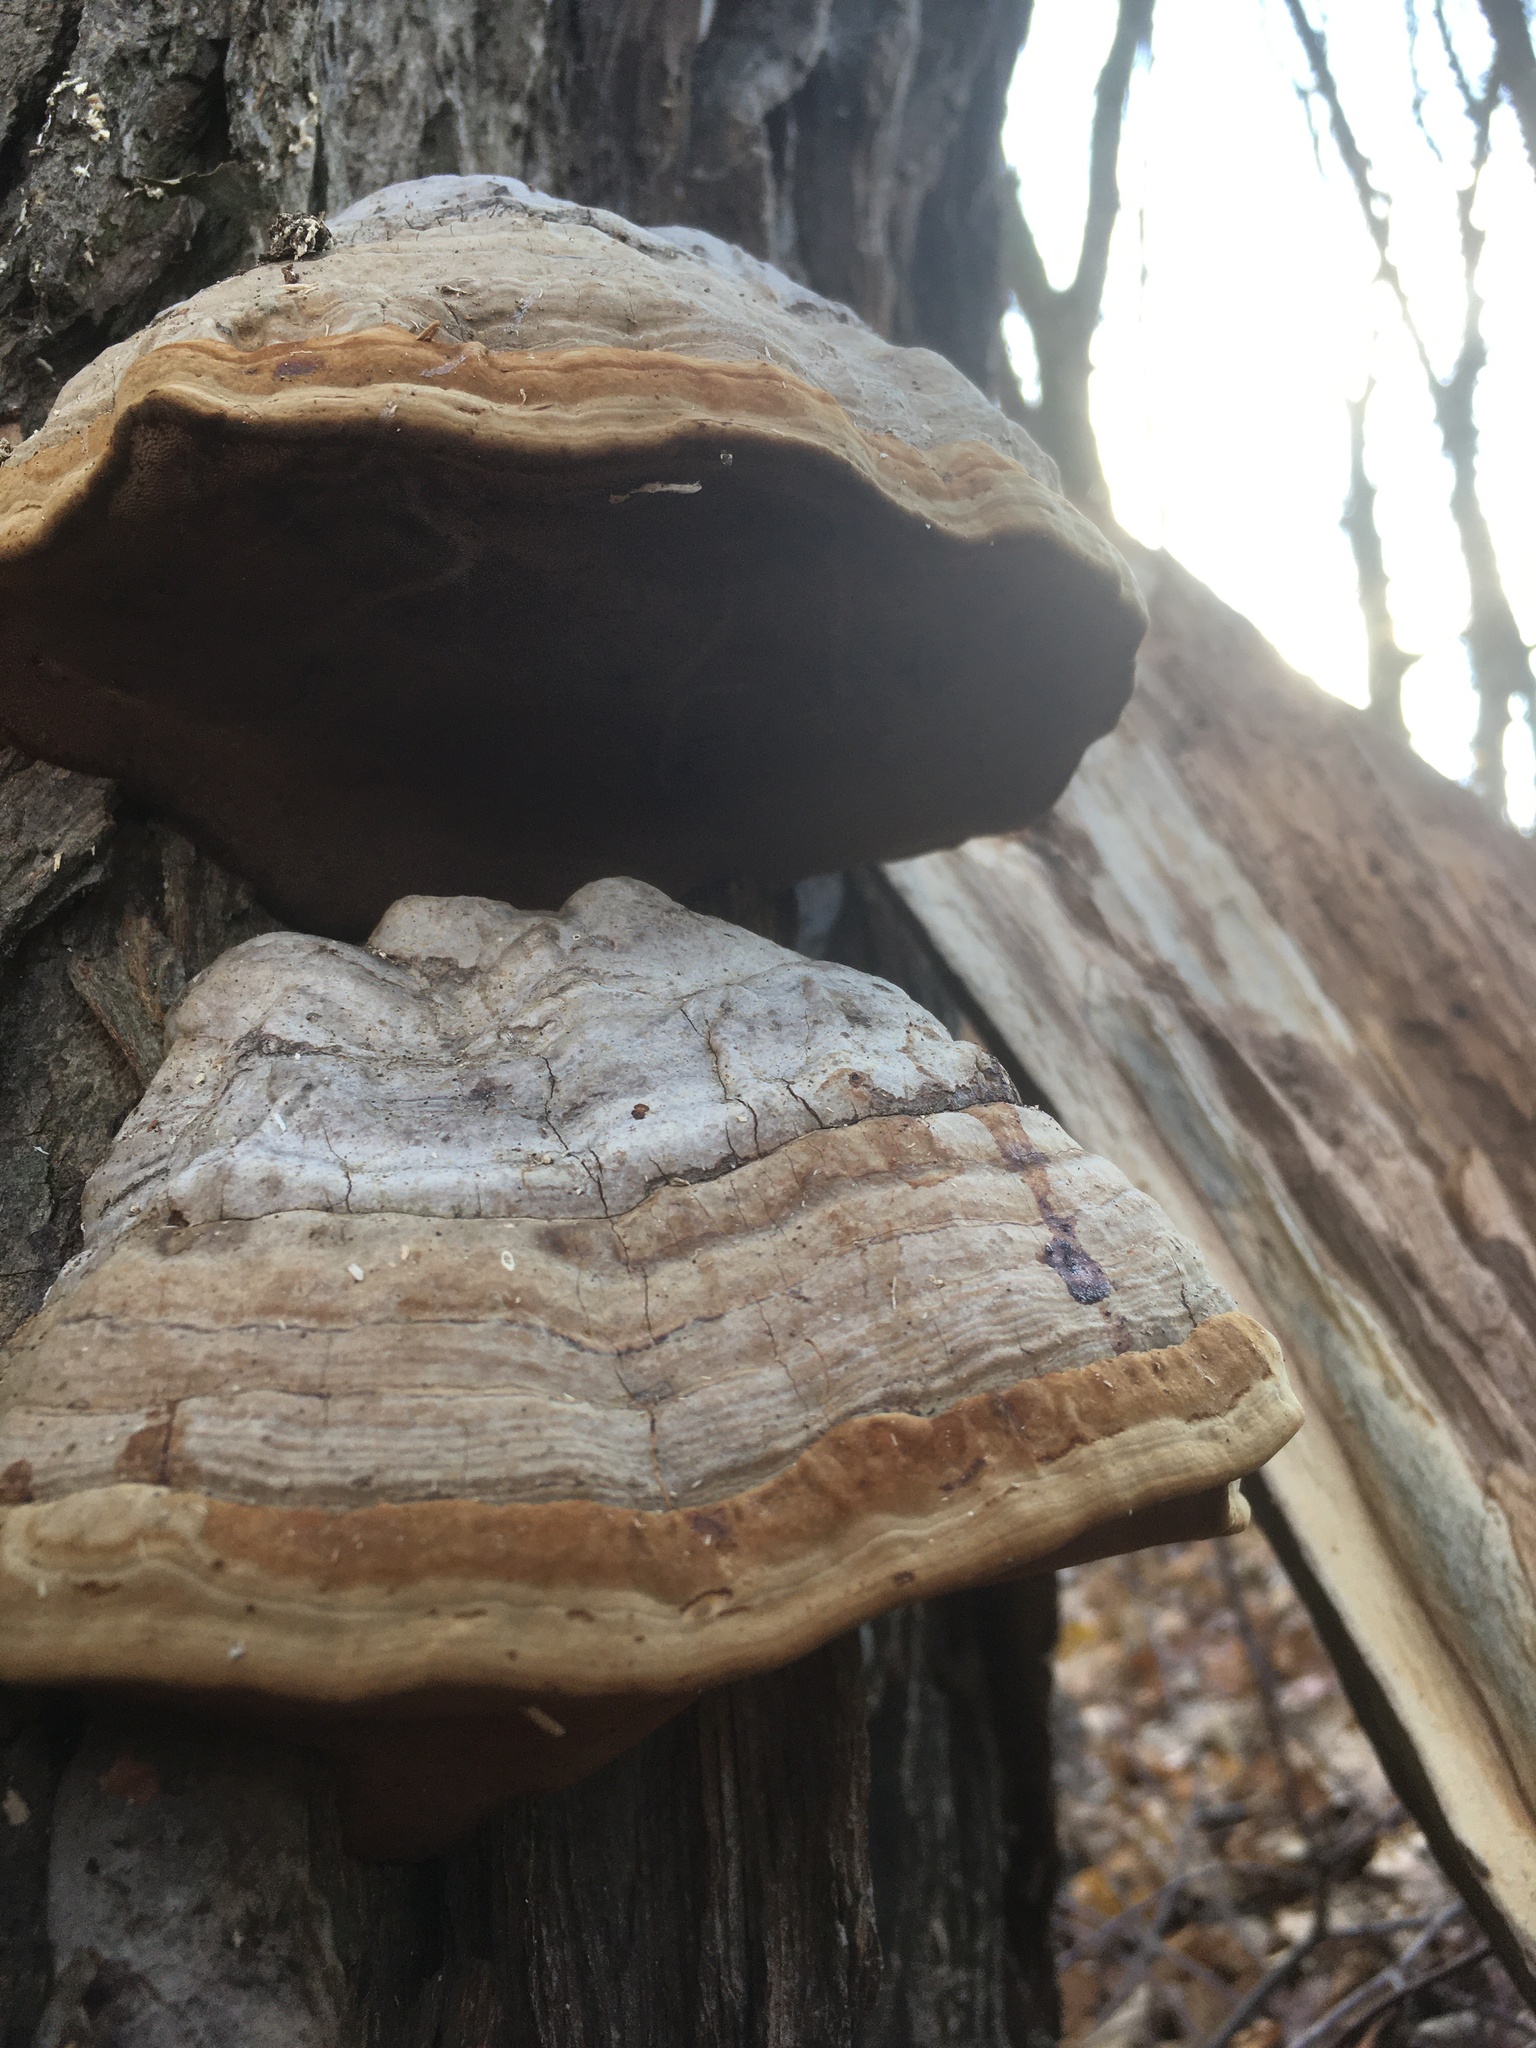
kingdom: Fungi
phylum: Basidiomycota
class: Agaricomycetes
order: Polyporales
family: Polyporaceae
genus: Fomes
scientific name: Fomes fomentarius
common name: Hoof fungus
